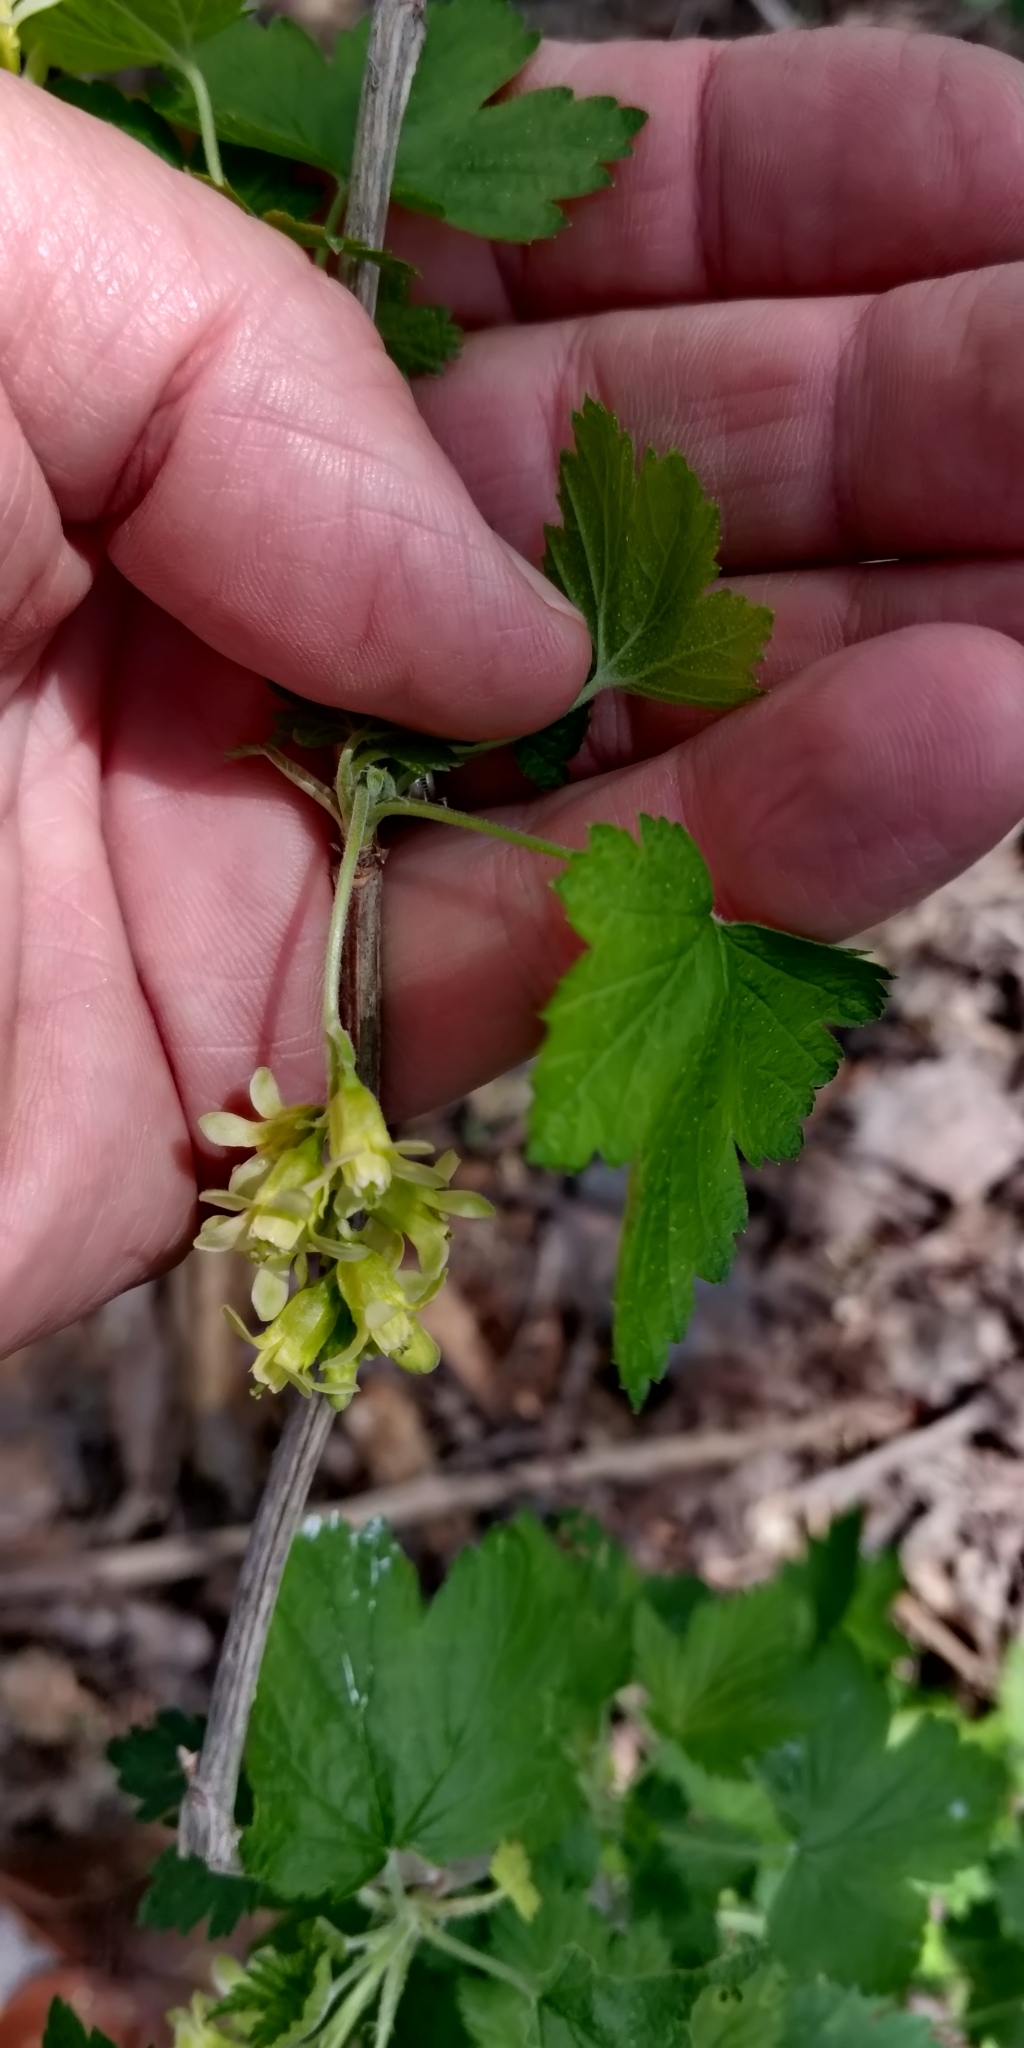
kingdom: Plantae
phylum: Tracheophyta
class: Magnoliopsida
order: Saxifragales
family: Grossulariaceae
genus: Ribes
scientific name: Ribes americanum
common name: American black currant
